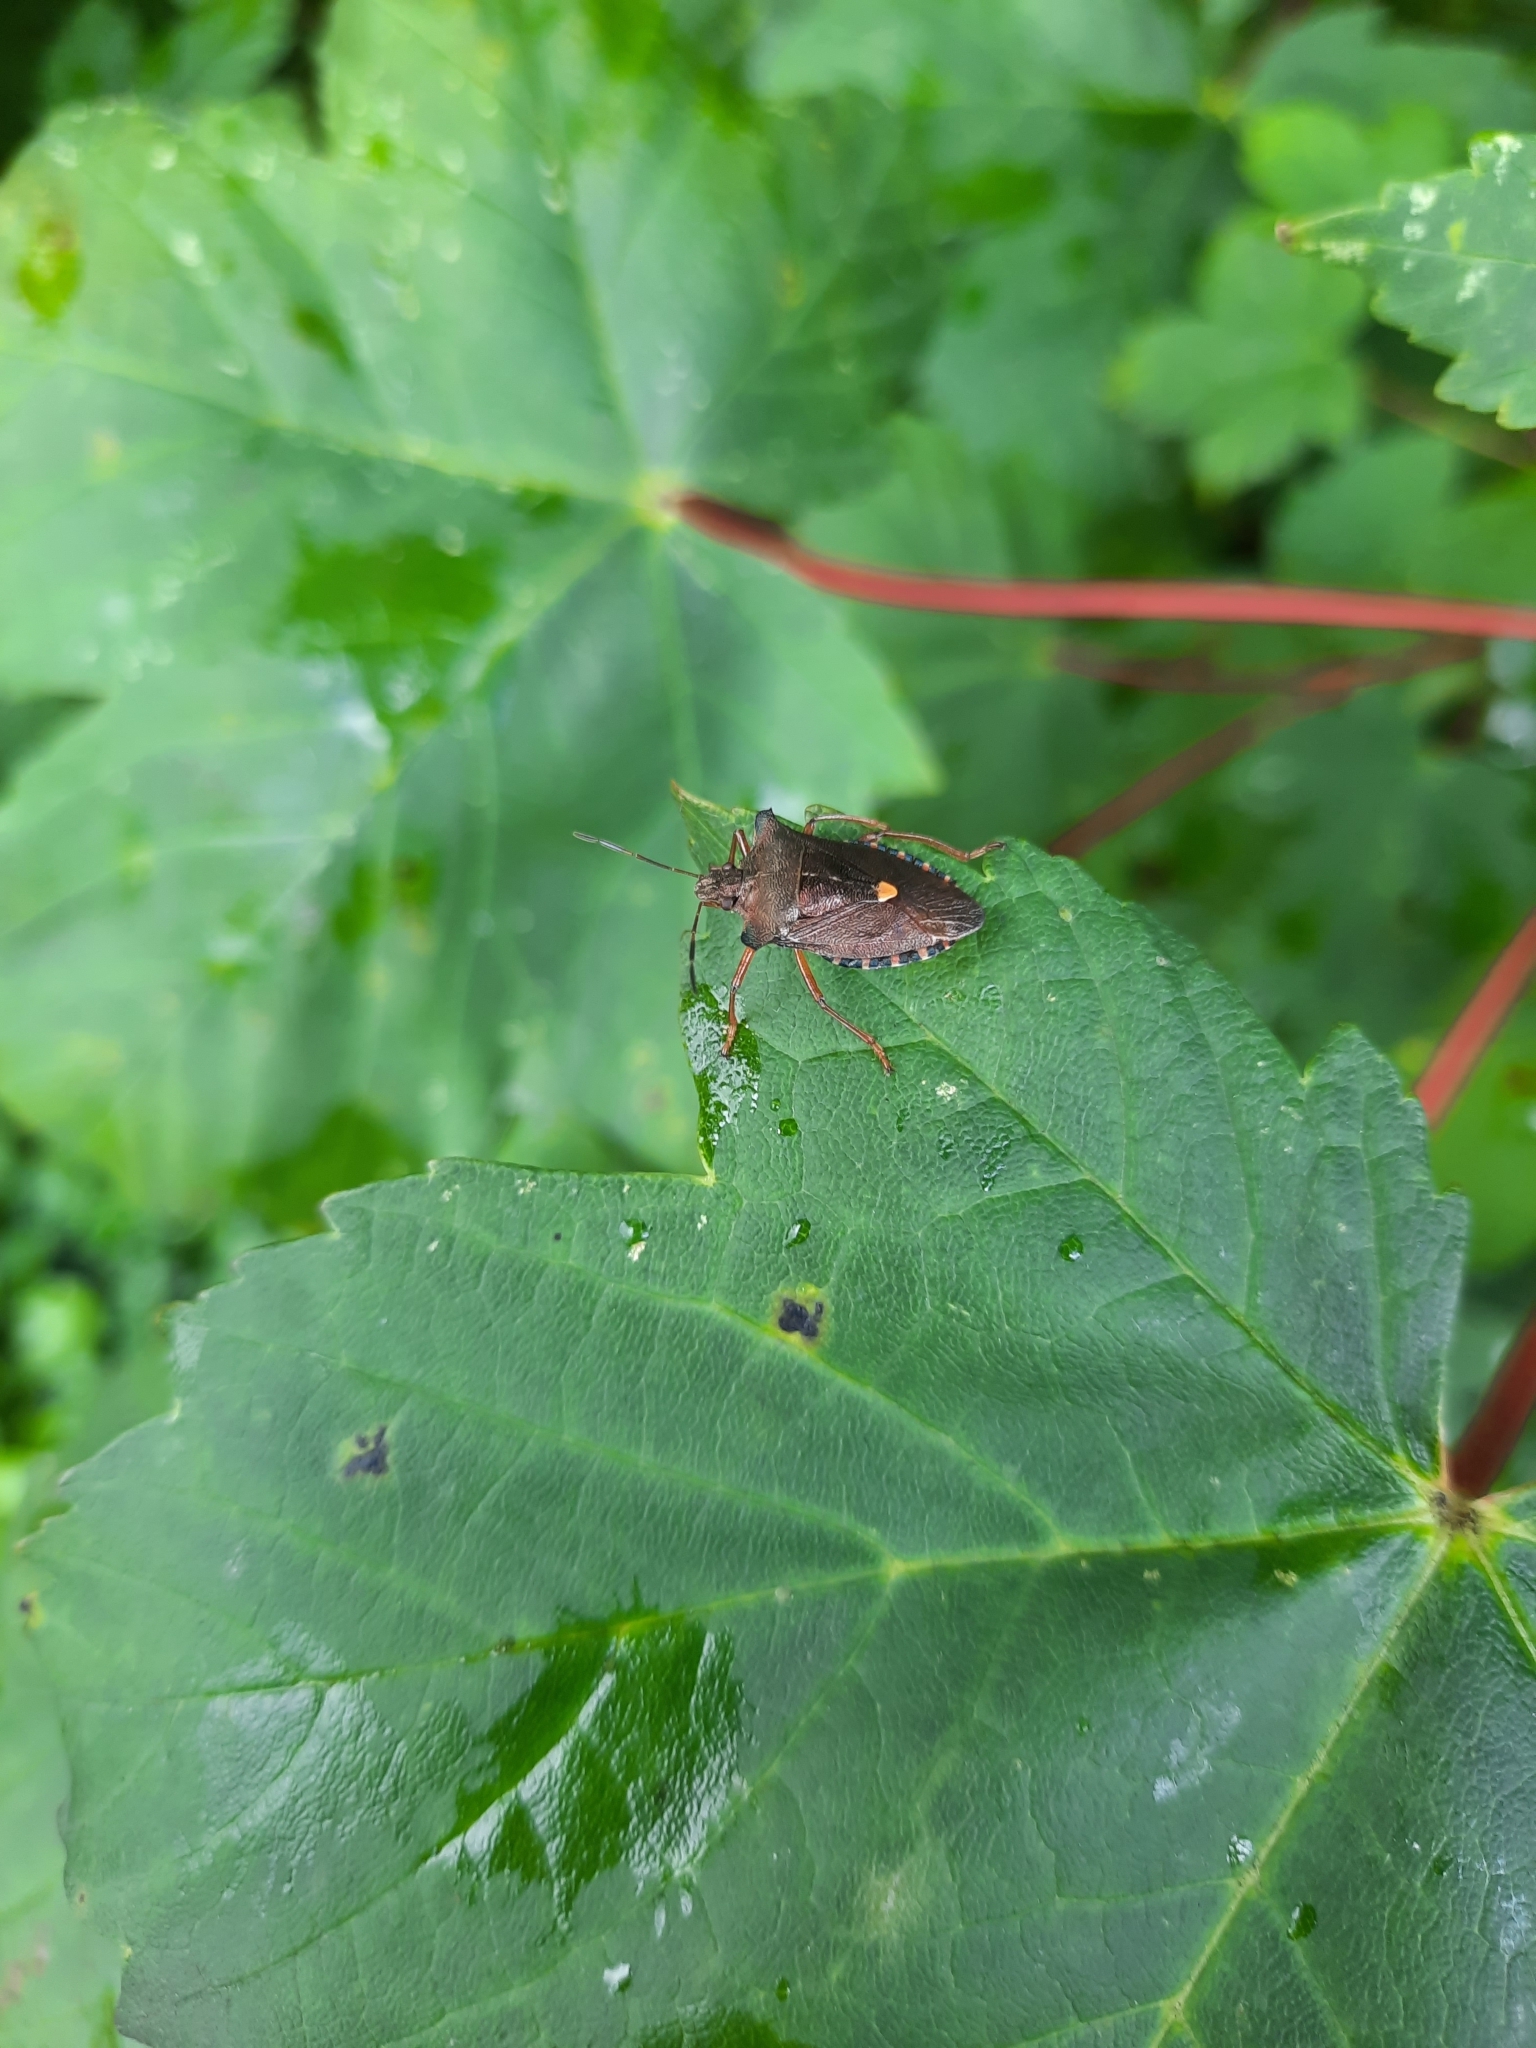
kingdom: Animalia
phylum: Arthropoda
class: Insecta
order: Hemiptera
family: Pentatomidae
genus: Pentatoma
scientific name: Pentatoma rufipes
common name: Forest bug
